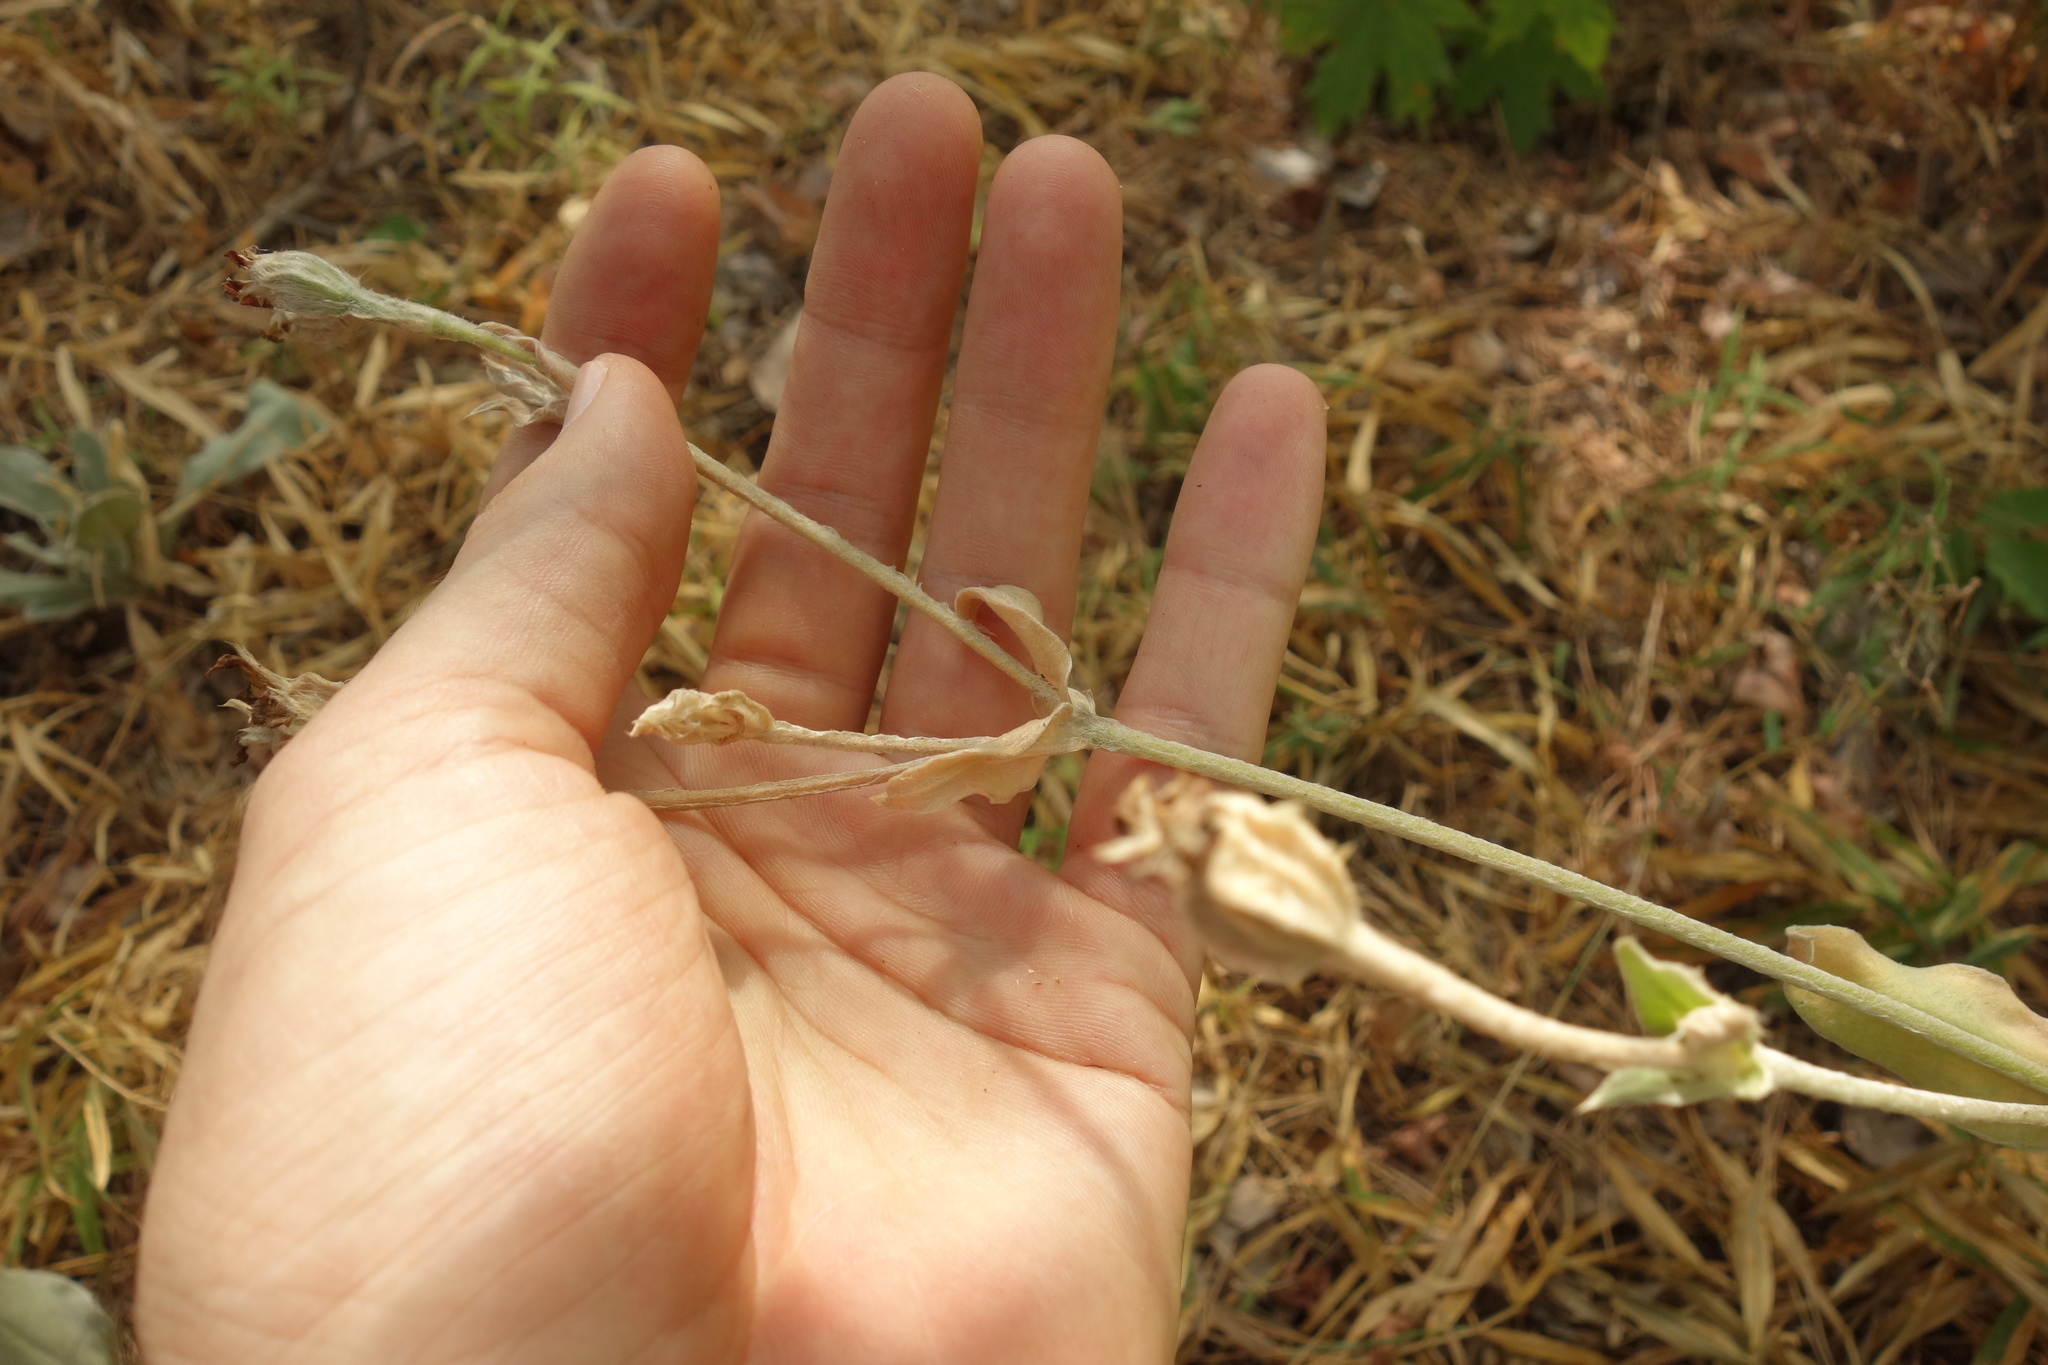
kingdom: Plantae
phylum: Tracheophyta
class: Magnoliopsida
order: Caryophyllales
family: Caryophyllaceae
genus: Silene
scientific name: Silene coronaria
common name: Rose campion
